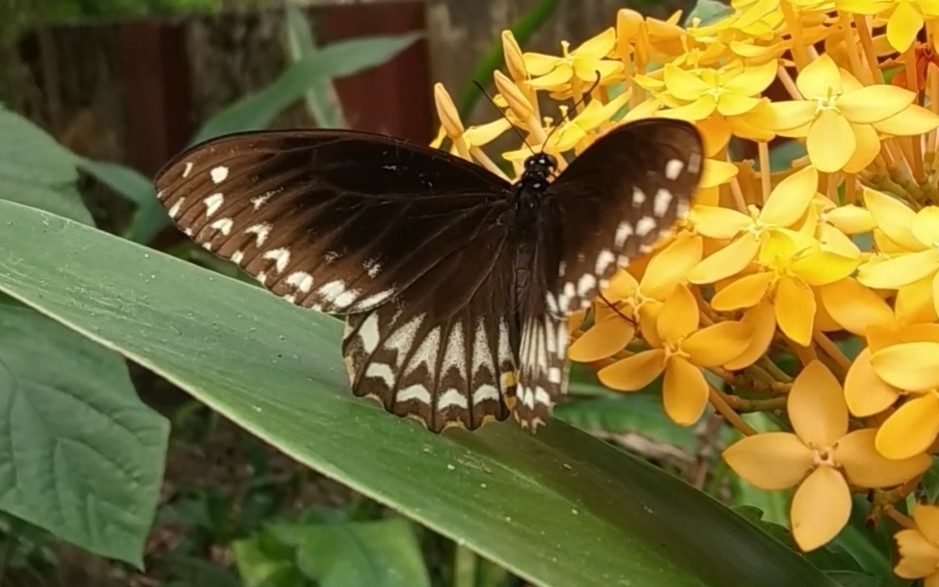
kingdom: Animalia
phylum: Arthropoda
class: Insecta
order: Lepidoptera
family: Papilionidae
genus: Chilasa
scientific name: Chilasa clytia
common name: Common mime
